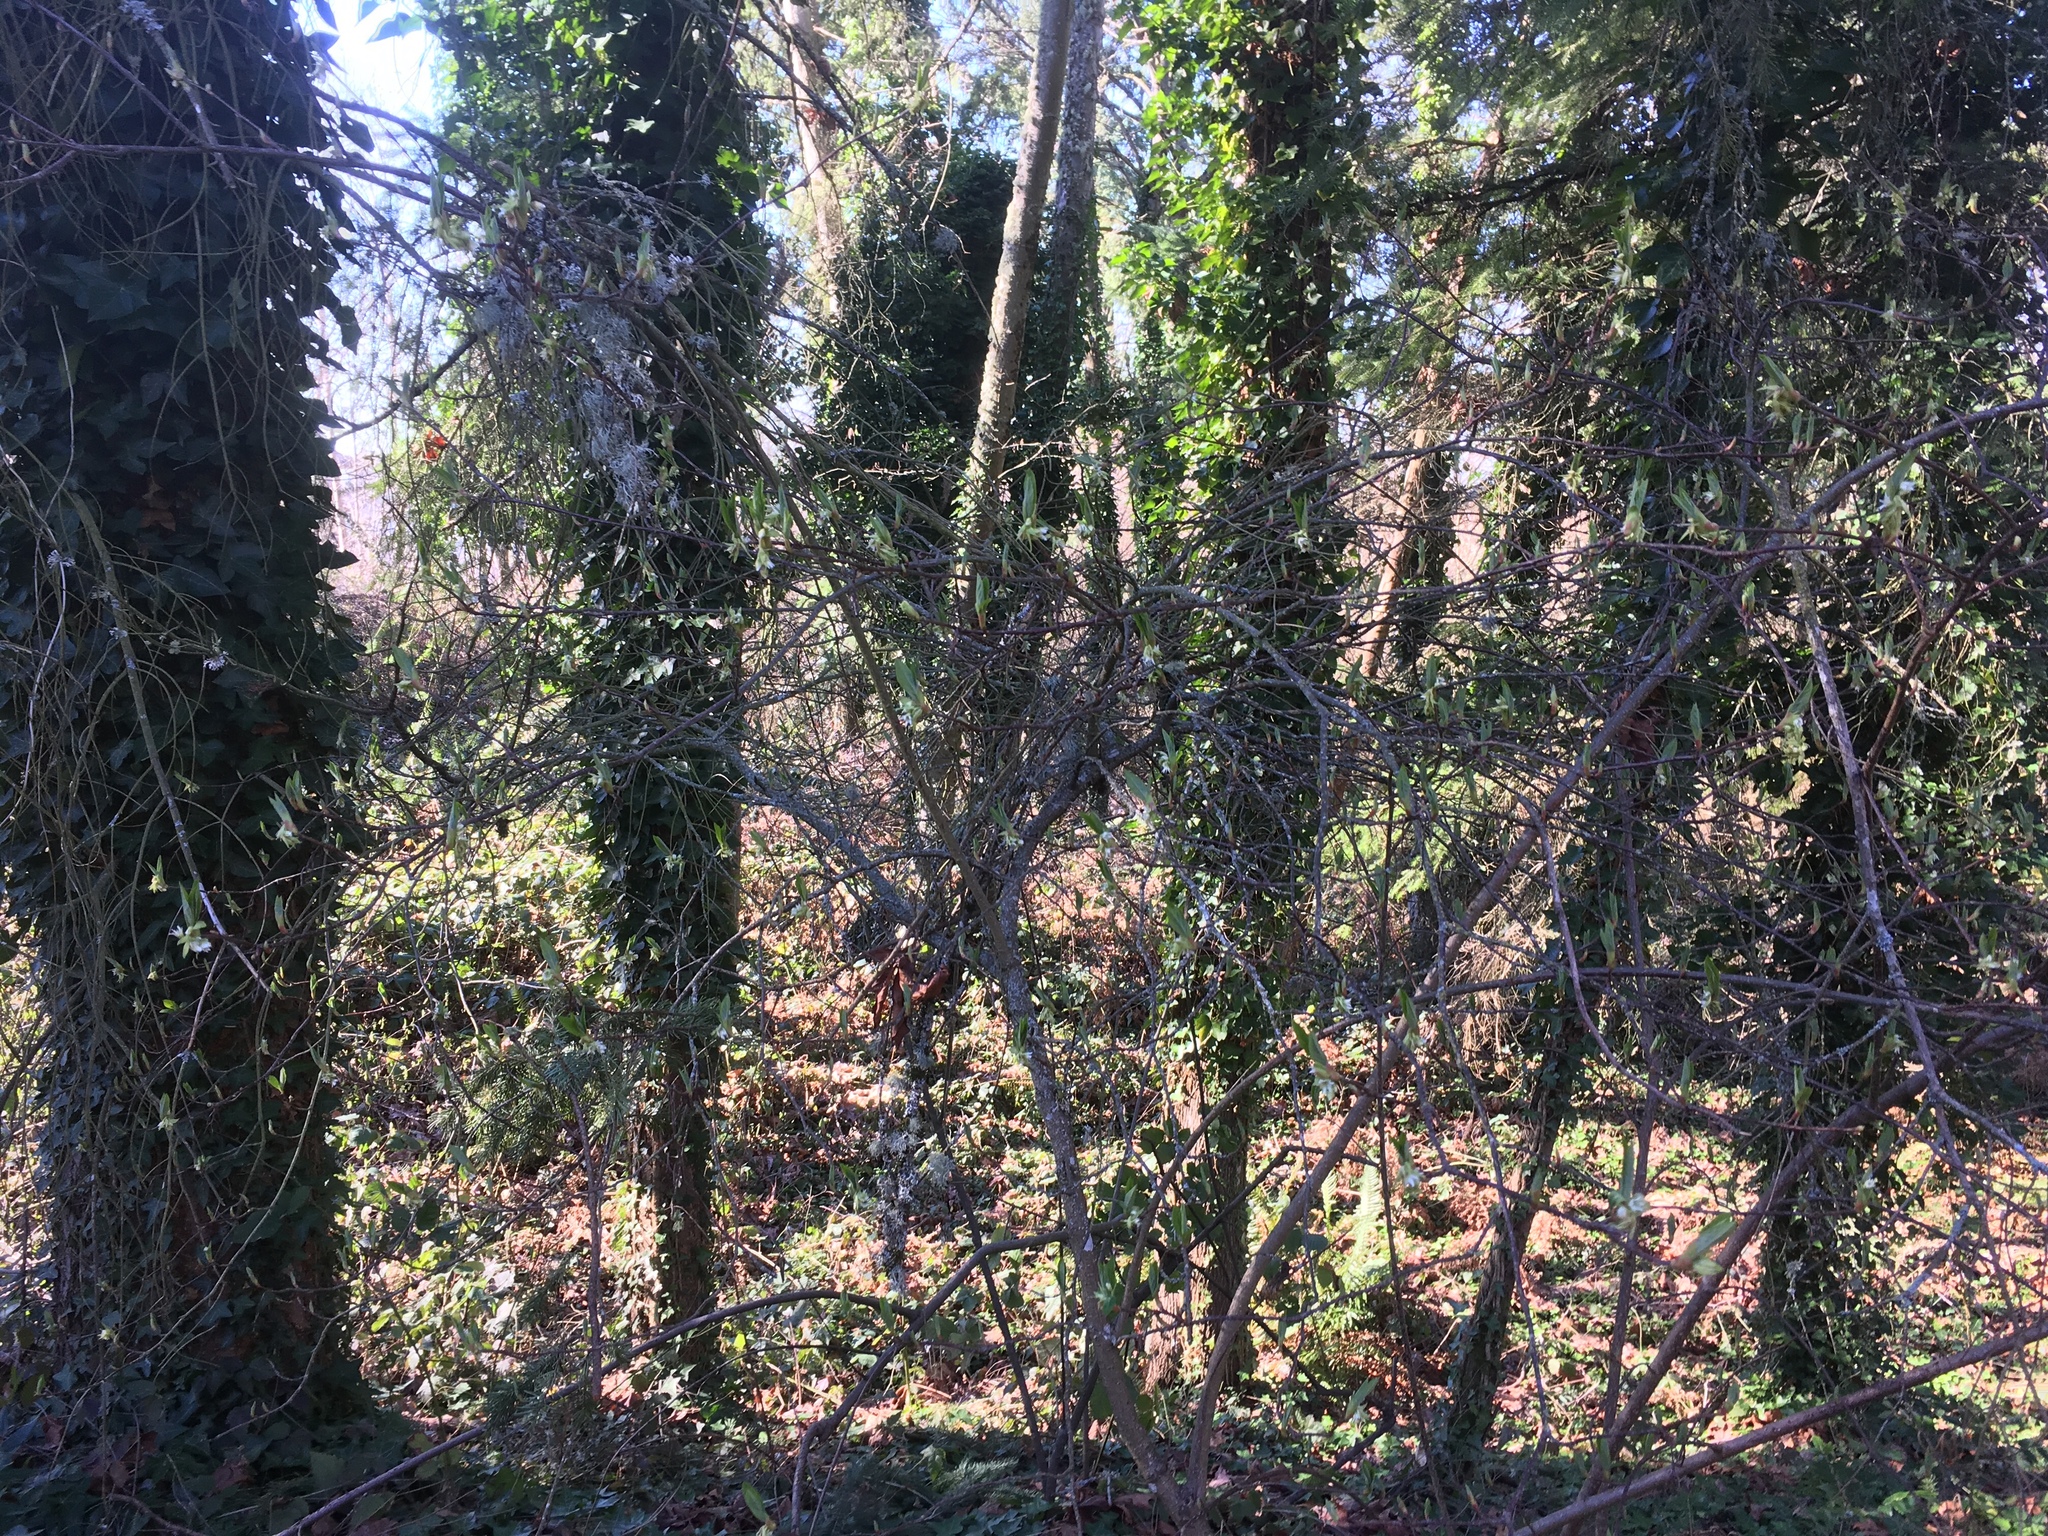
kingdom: Plantae
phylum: Tracheophyta
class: Magnoliopsida
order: Rosales
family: Rosaceae
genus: Oemleria
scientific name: Oemleria cerasiformis
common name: Osoberry
